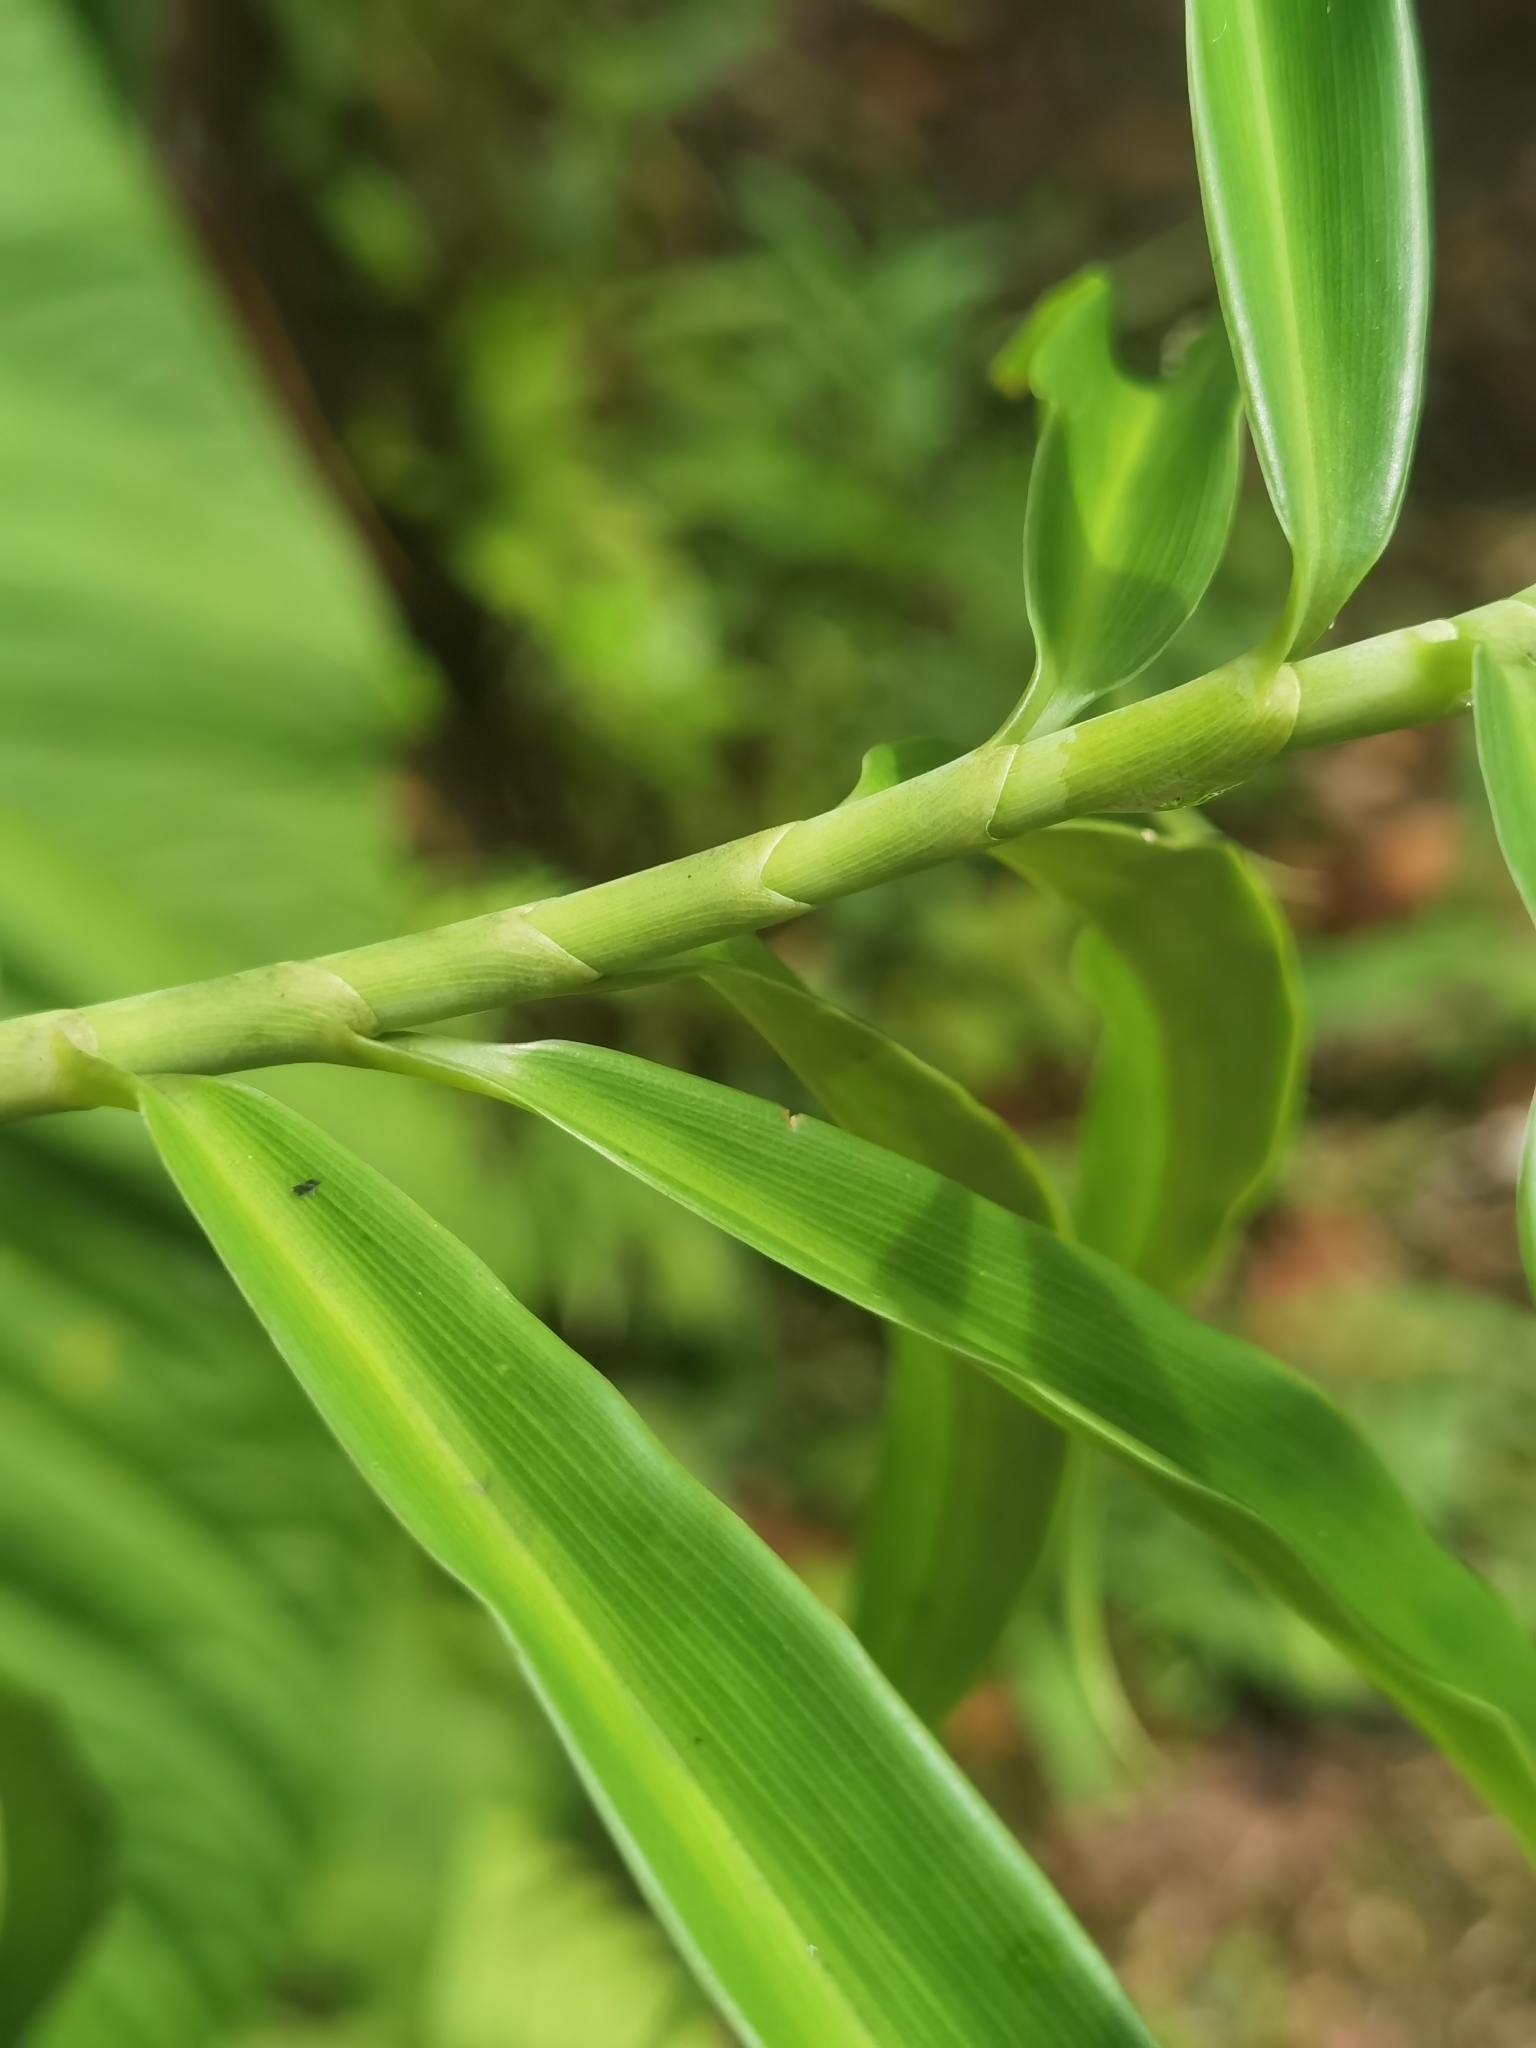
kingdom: Plantae
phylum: Tracheophyta
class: Liliopsida
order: Zingiberales
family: Costaceae
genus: Costus
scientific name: Costus stenophyllus
